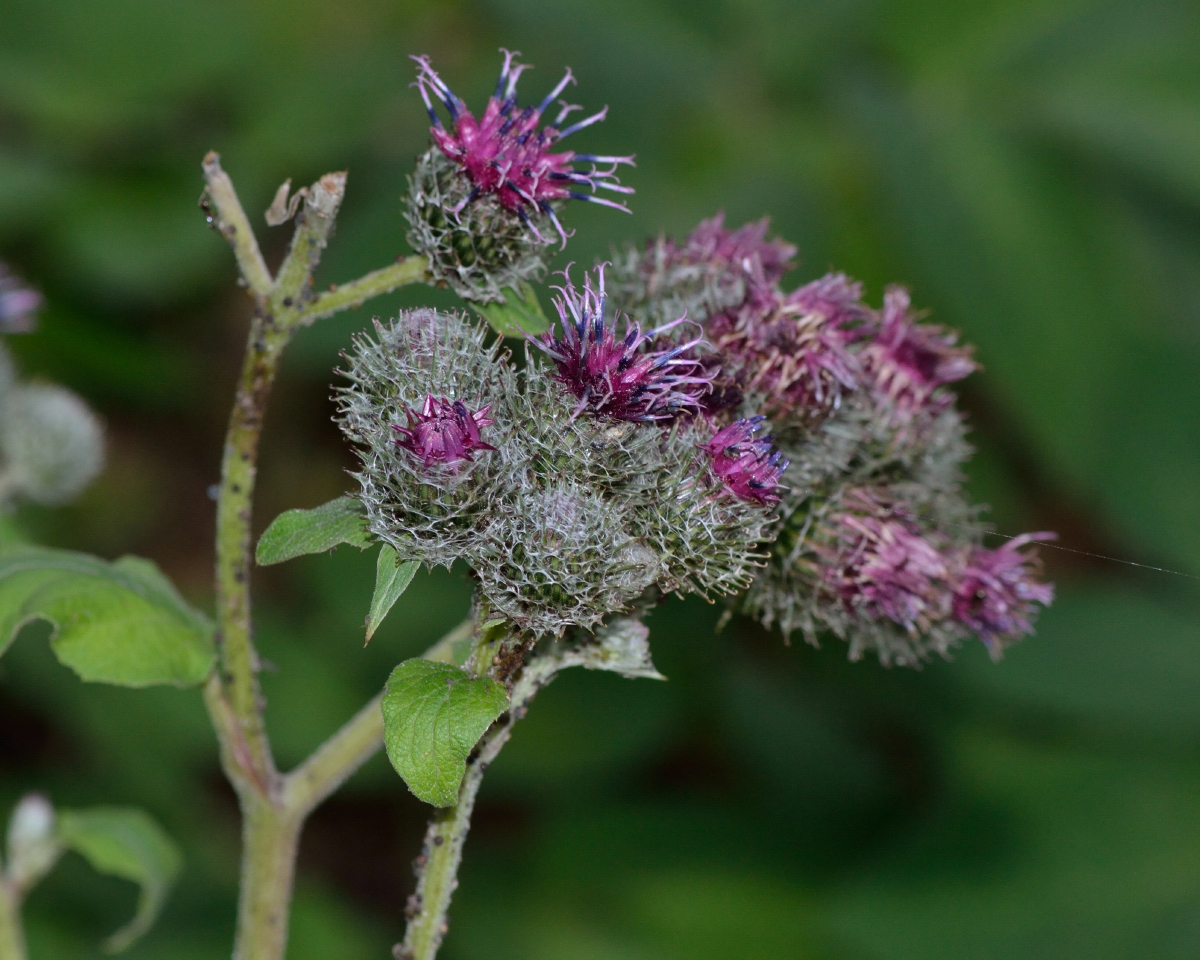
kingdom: Plantae
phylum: Tracheophyta
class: Magnoliopsida
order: Asterales
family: Asteraceae
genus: Arctium
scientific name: Arctium tomentosum
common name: Woolly burdock
